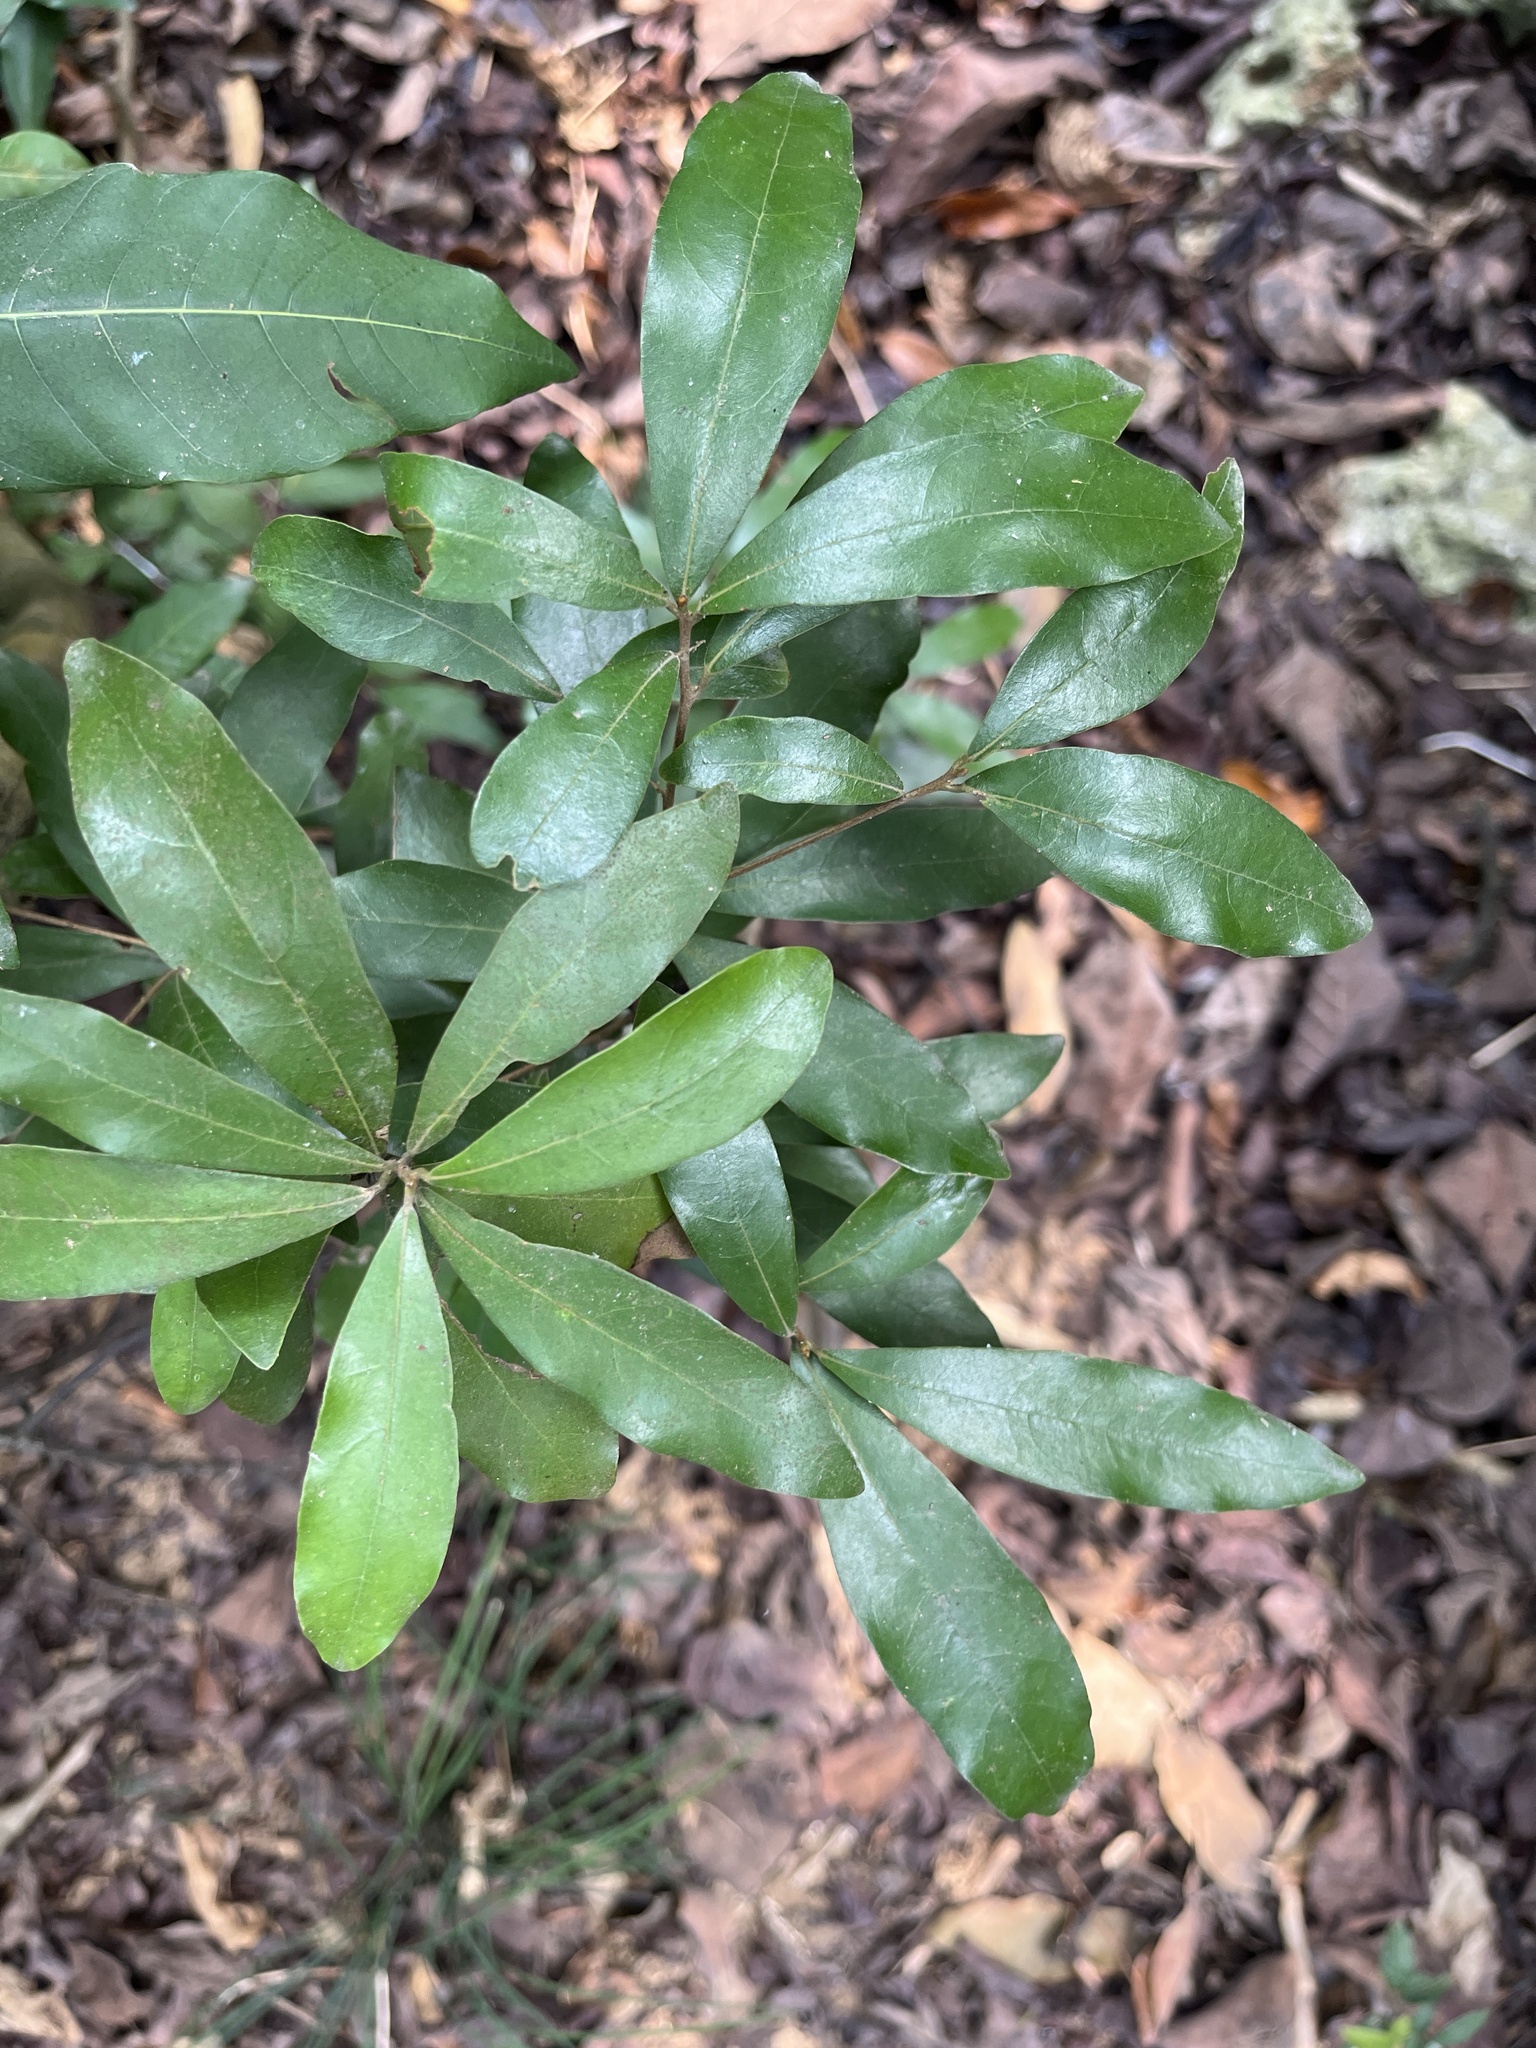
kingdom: Plantae
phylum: Tracheophyta
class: Magnoliopsida
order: Laurales
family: Lauraceae
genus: Litsea
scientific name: Litsea hypophaea
